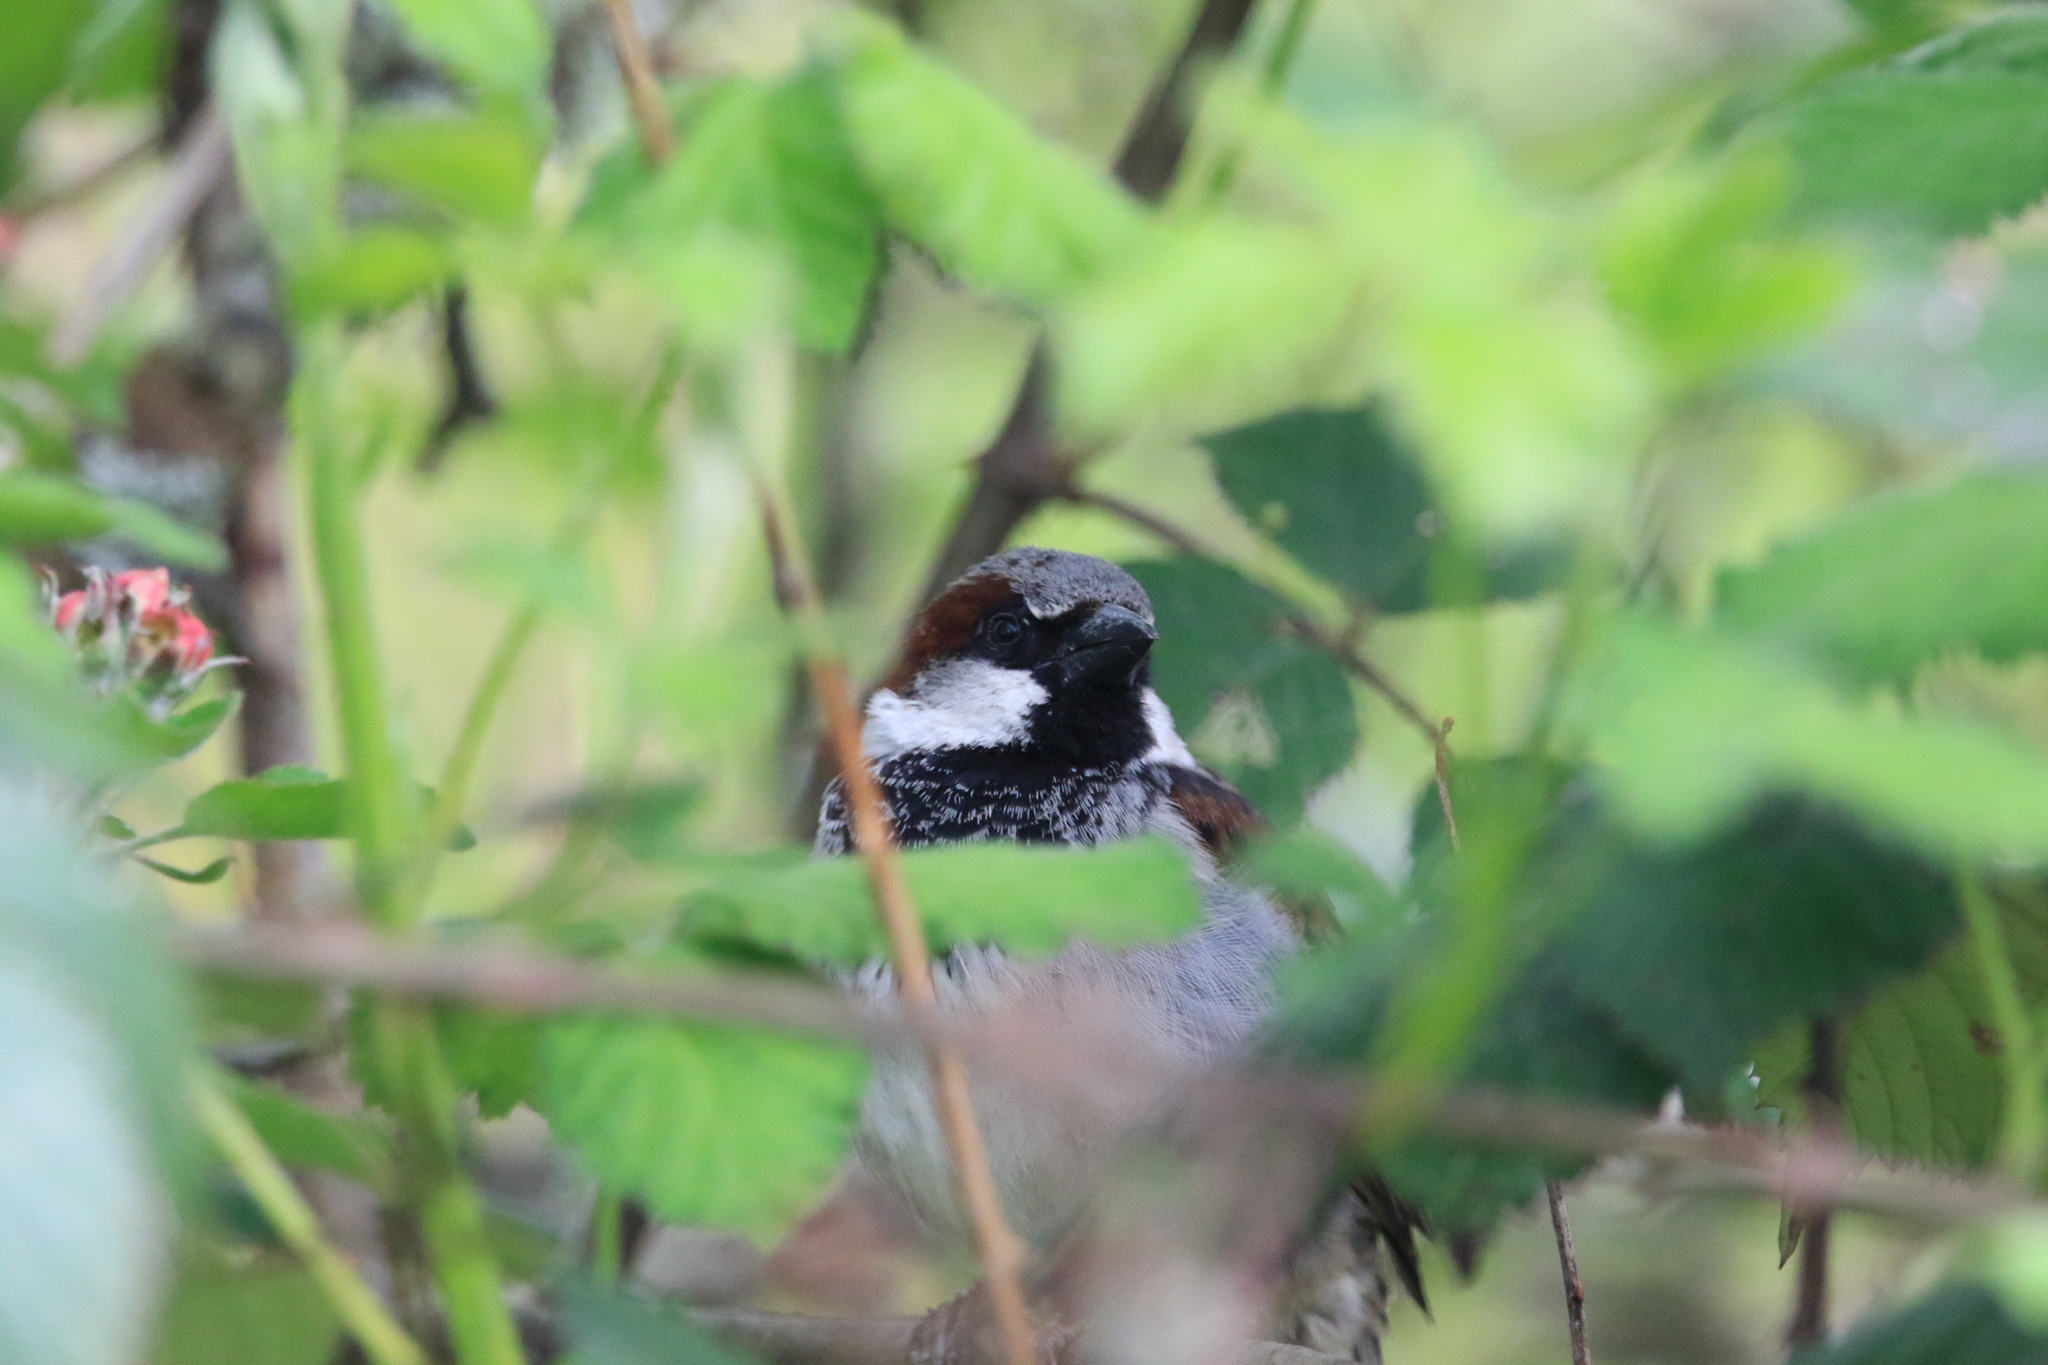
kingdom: Animalia
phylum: Chordata
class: Aves
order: Passeriformes
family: Passeridae
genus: Passer
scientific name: Passer domesticus
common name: House sparrow
